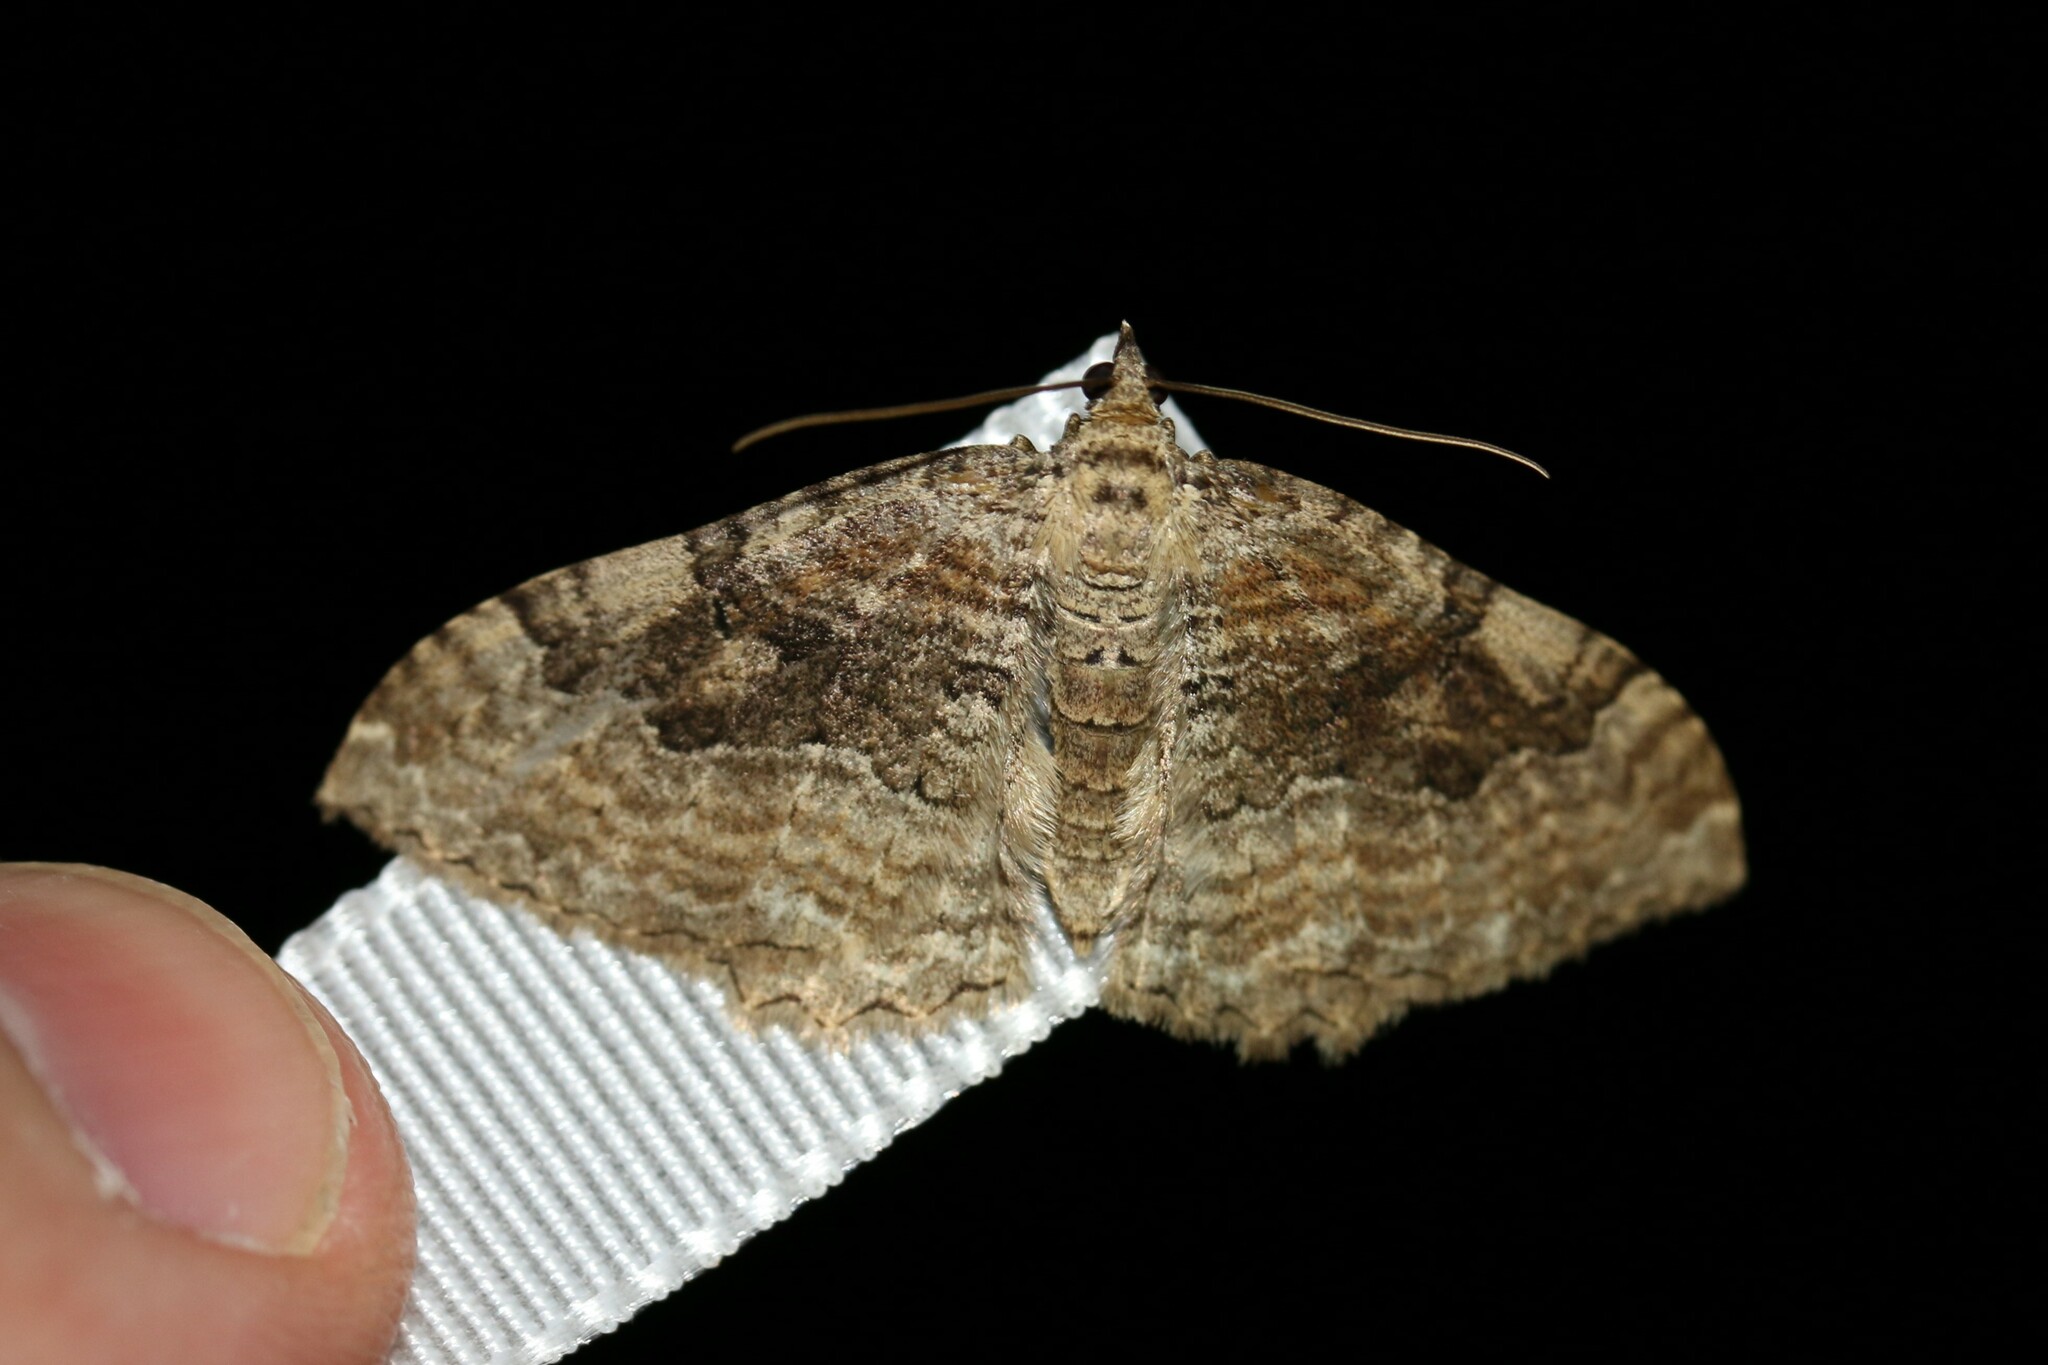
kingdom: Animalia
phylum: Arthropoda
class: Insecta
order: Lepidoptera
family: Geometridae
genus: Rheumaptera
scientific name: Rheumaptera Hydria cervinalis
